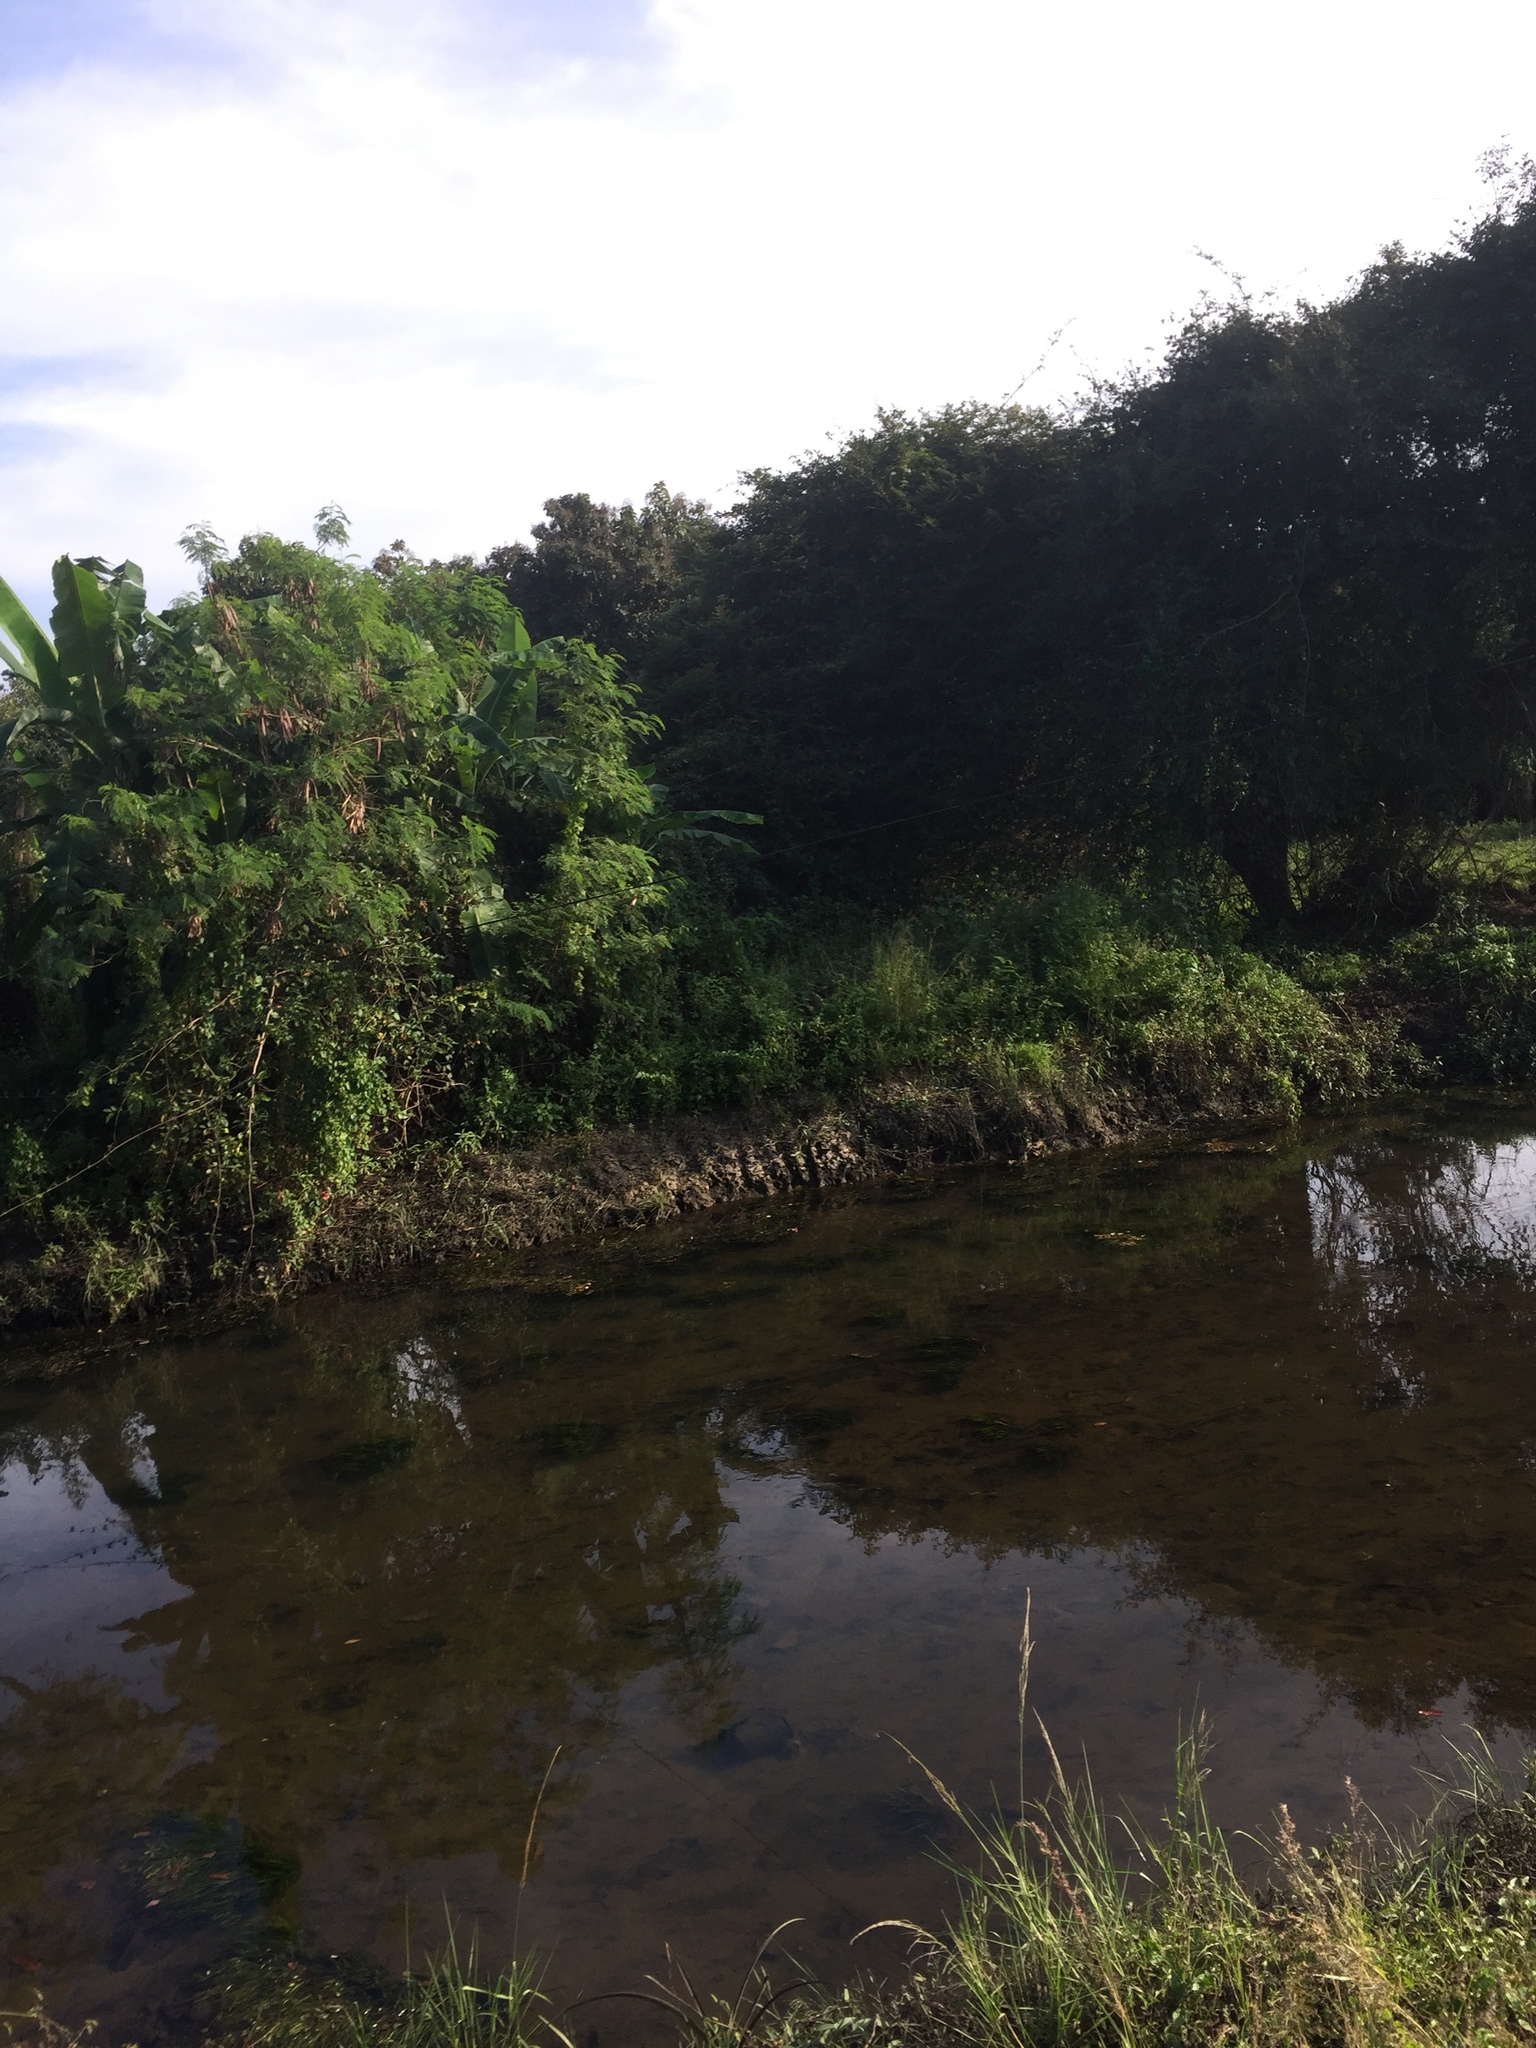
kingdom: Animalia
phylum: Chordata
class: Aves
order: Coraciiformes
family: Meropidae
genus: Merops
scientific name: Merops orientalis
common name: Green bee-eater
